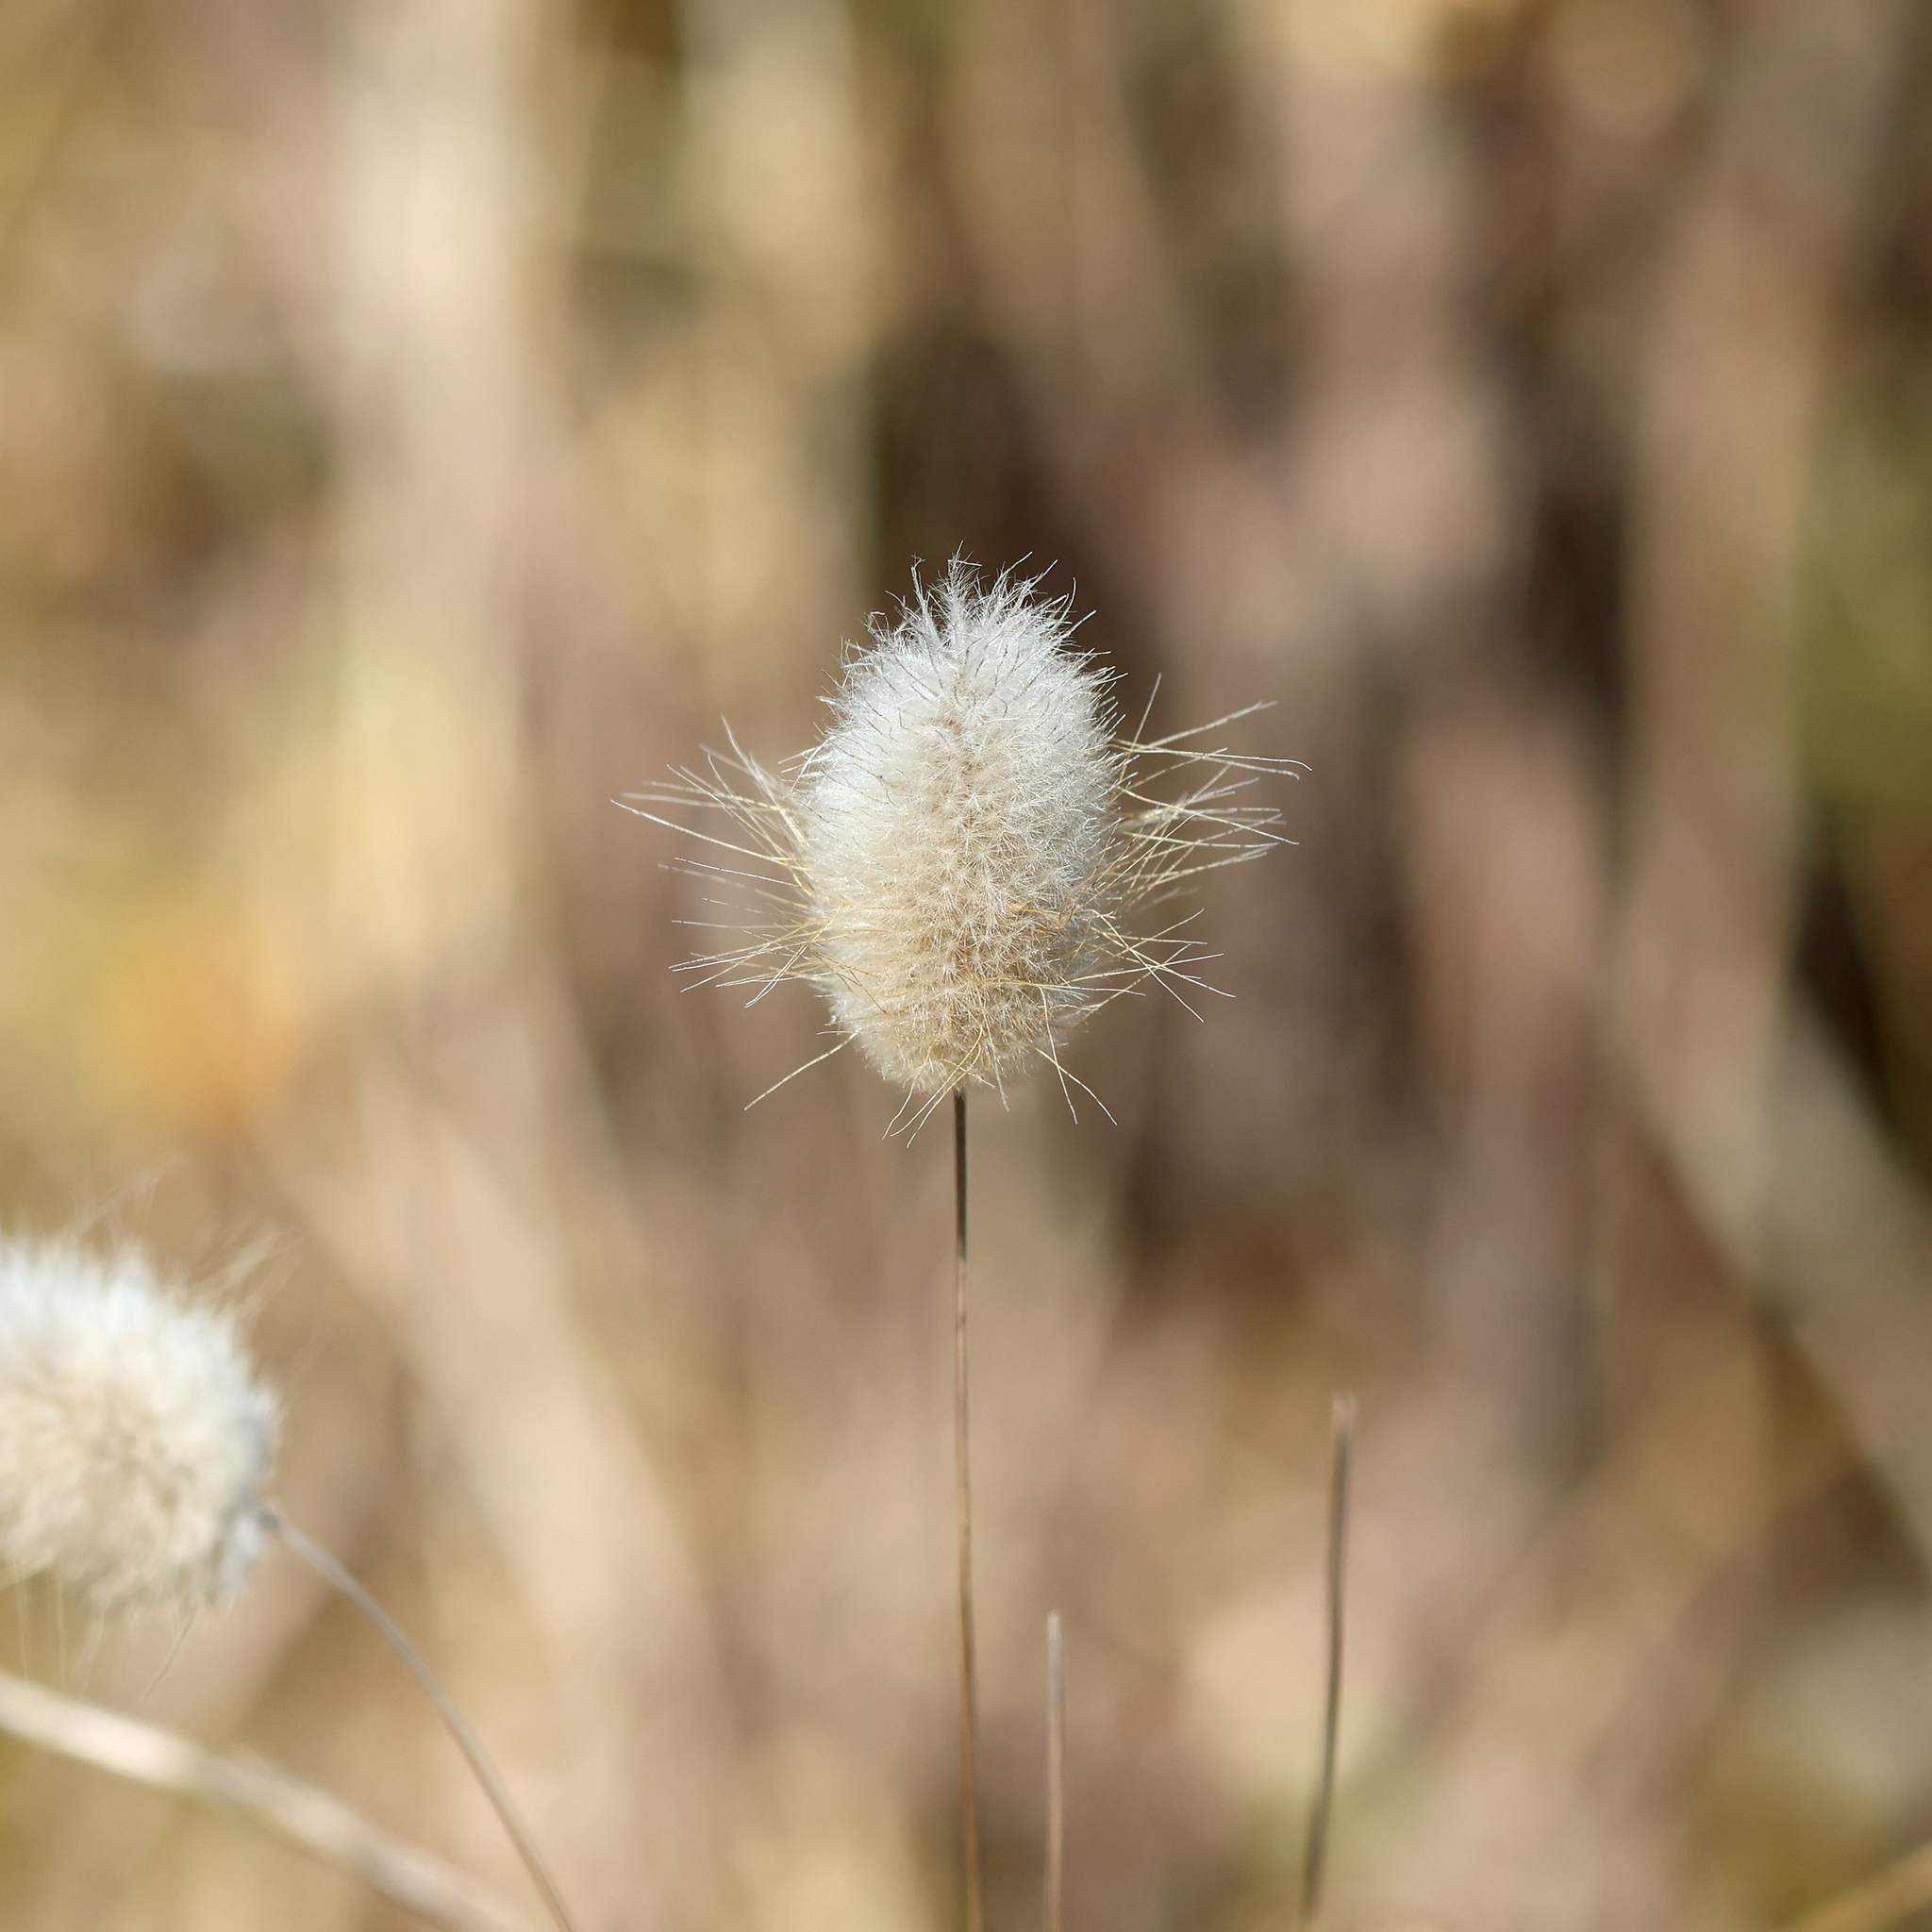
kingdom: Plantae
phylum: Tracheophyta
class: Liliopsida
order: Poales
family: Poaceae
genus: Lagurus
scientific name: Lagurus ovatus
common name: Hare's-tail
